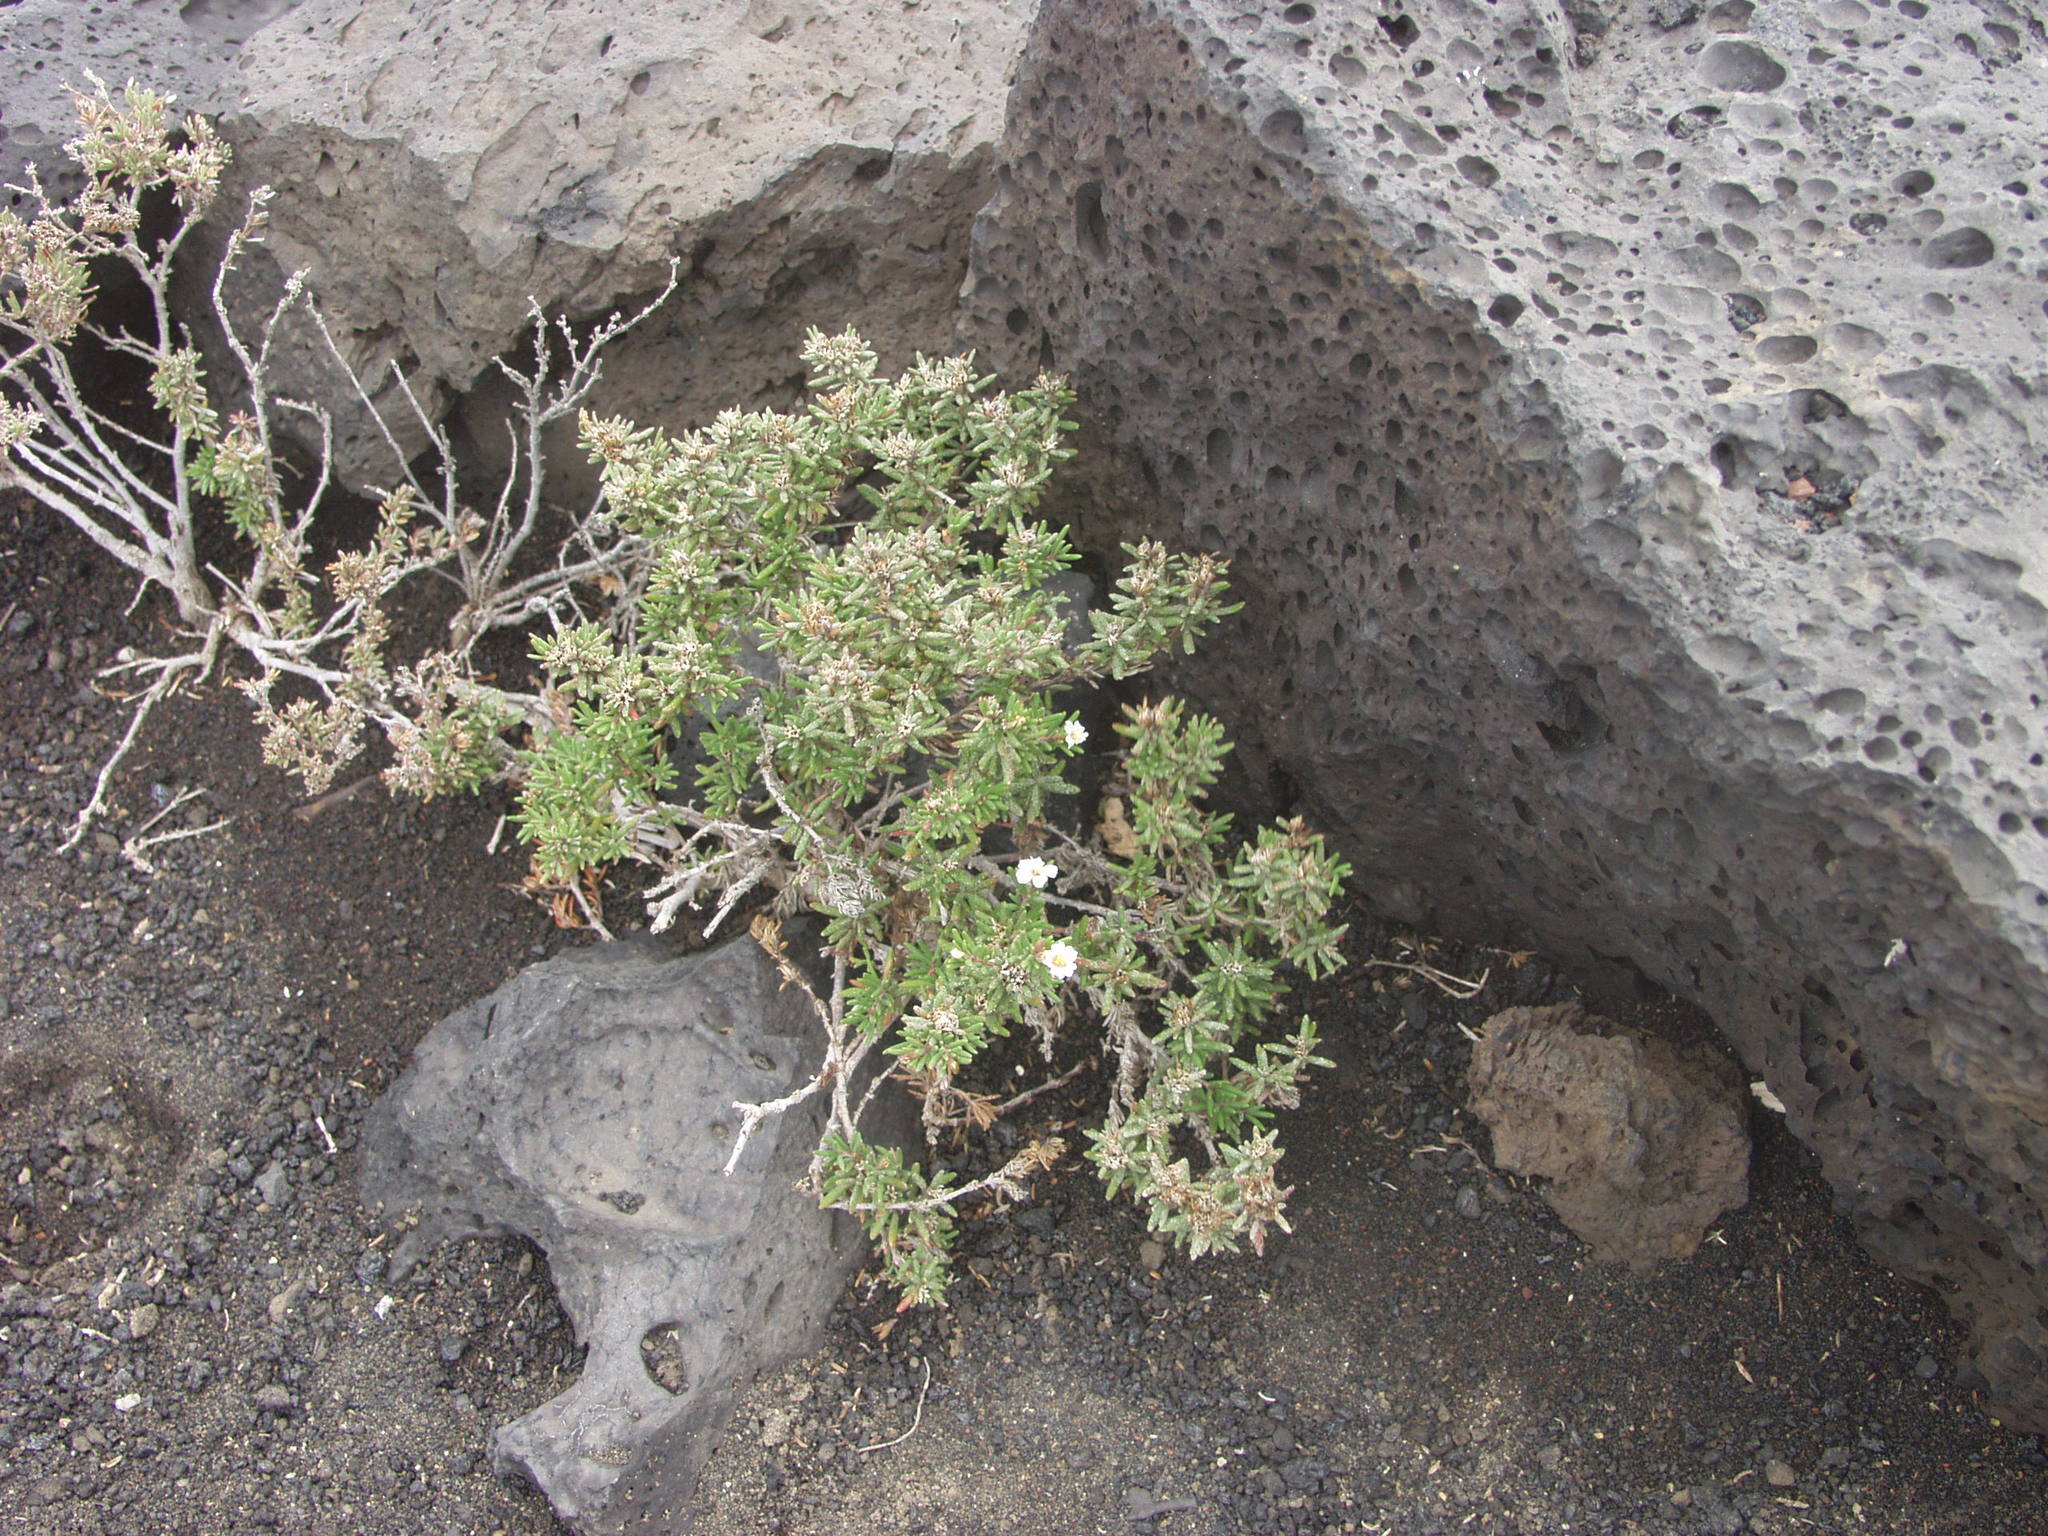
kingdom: Plantae
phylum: Tracheophyta
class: Magnoliopsida
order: Caryophyllales
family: Frankeniaceae
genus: Frankenia
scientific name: Frankenia capitata
